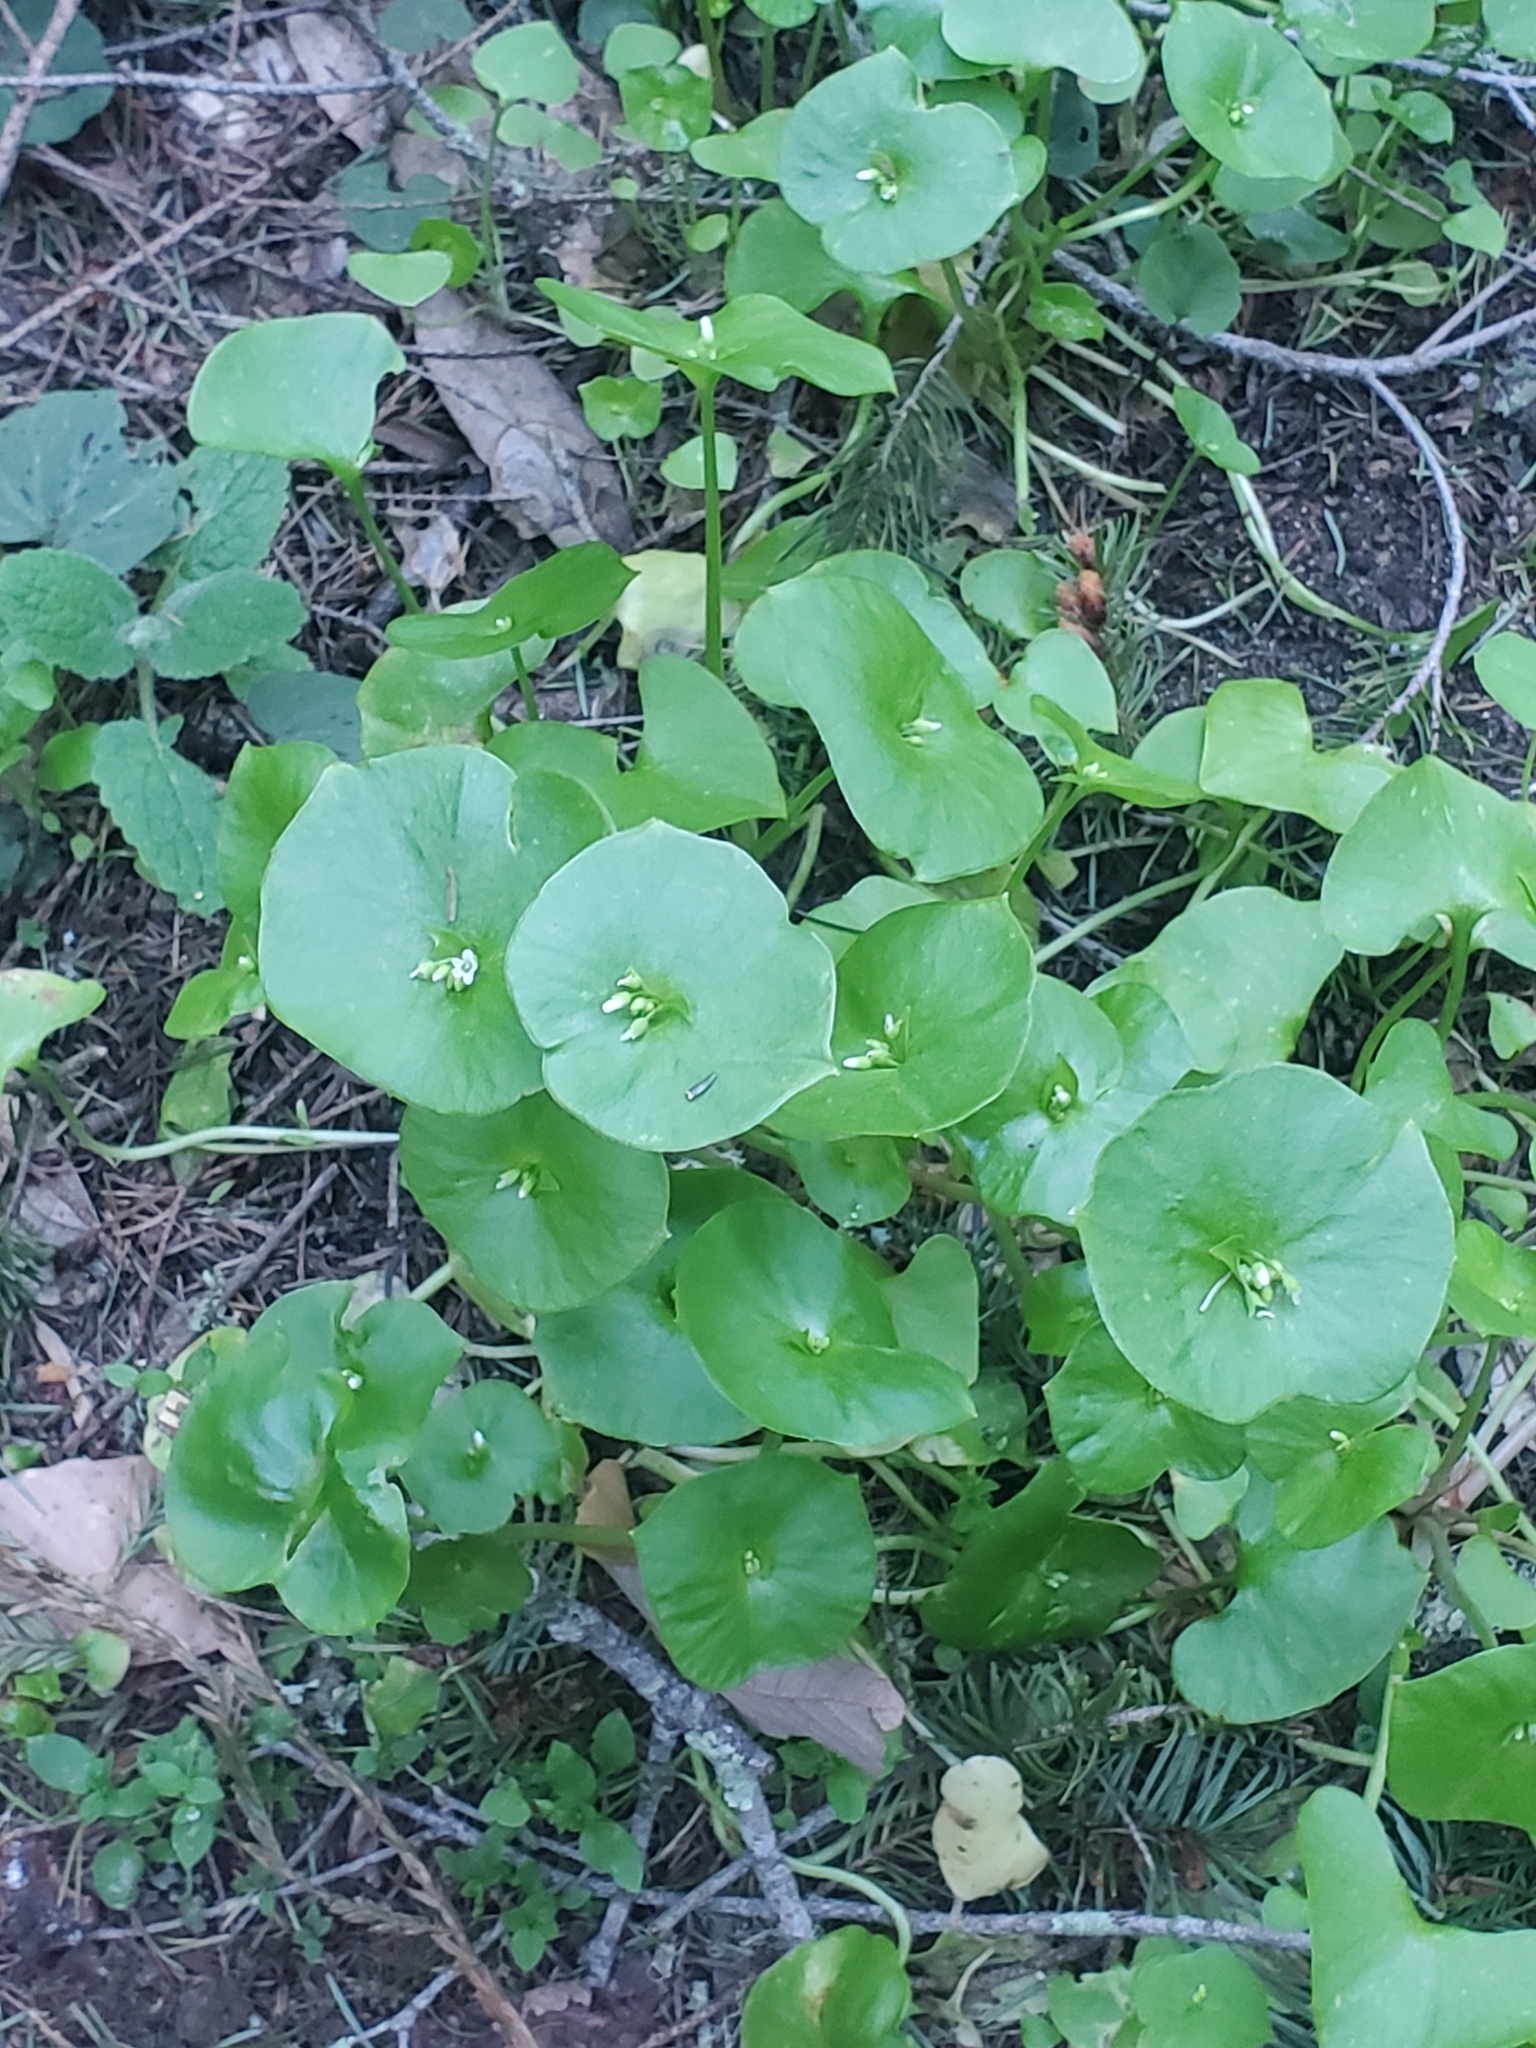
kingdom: Plantae
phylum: Tracheophyta
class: Magnoliopsida
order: Caryophyllales
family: Montiaceae
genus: Claytonia
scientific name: Claytonia perfoliata
